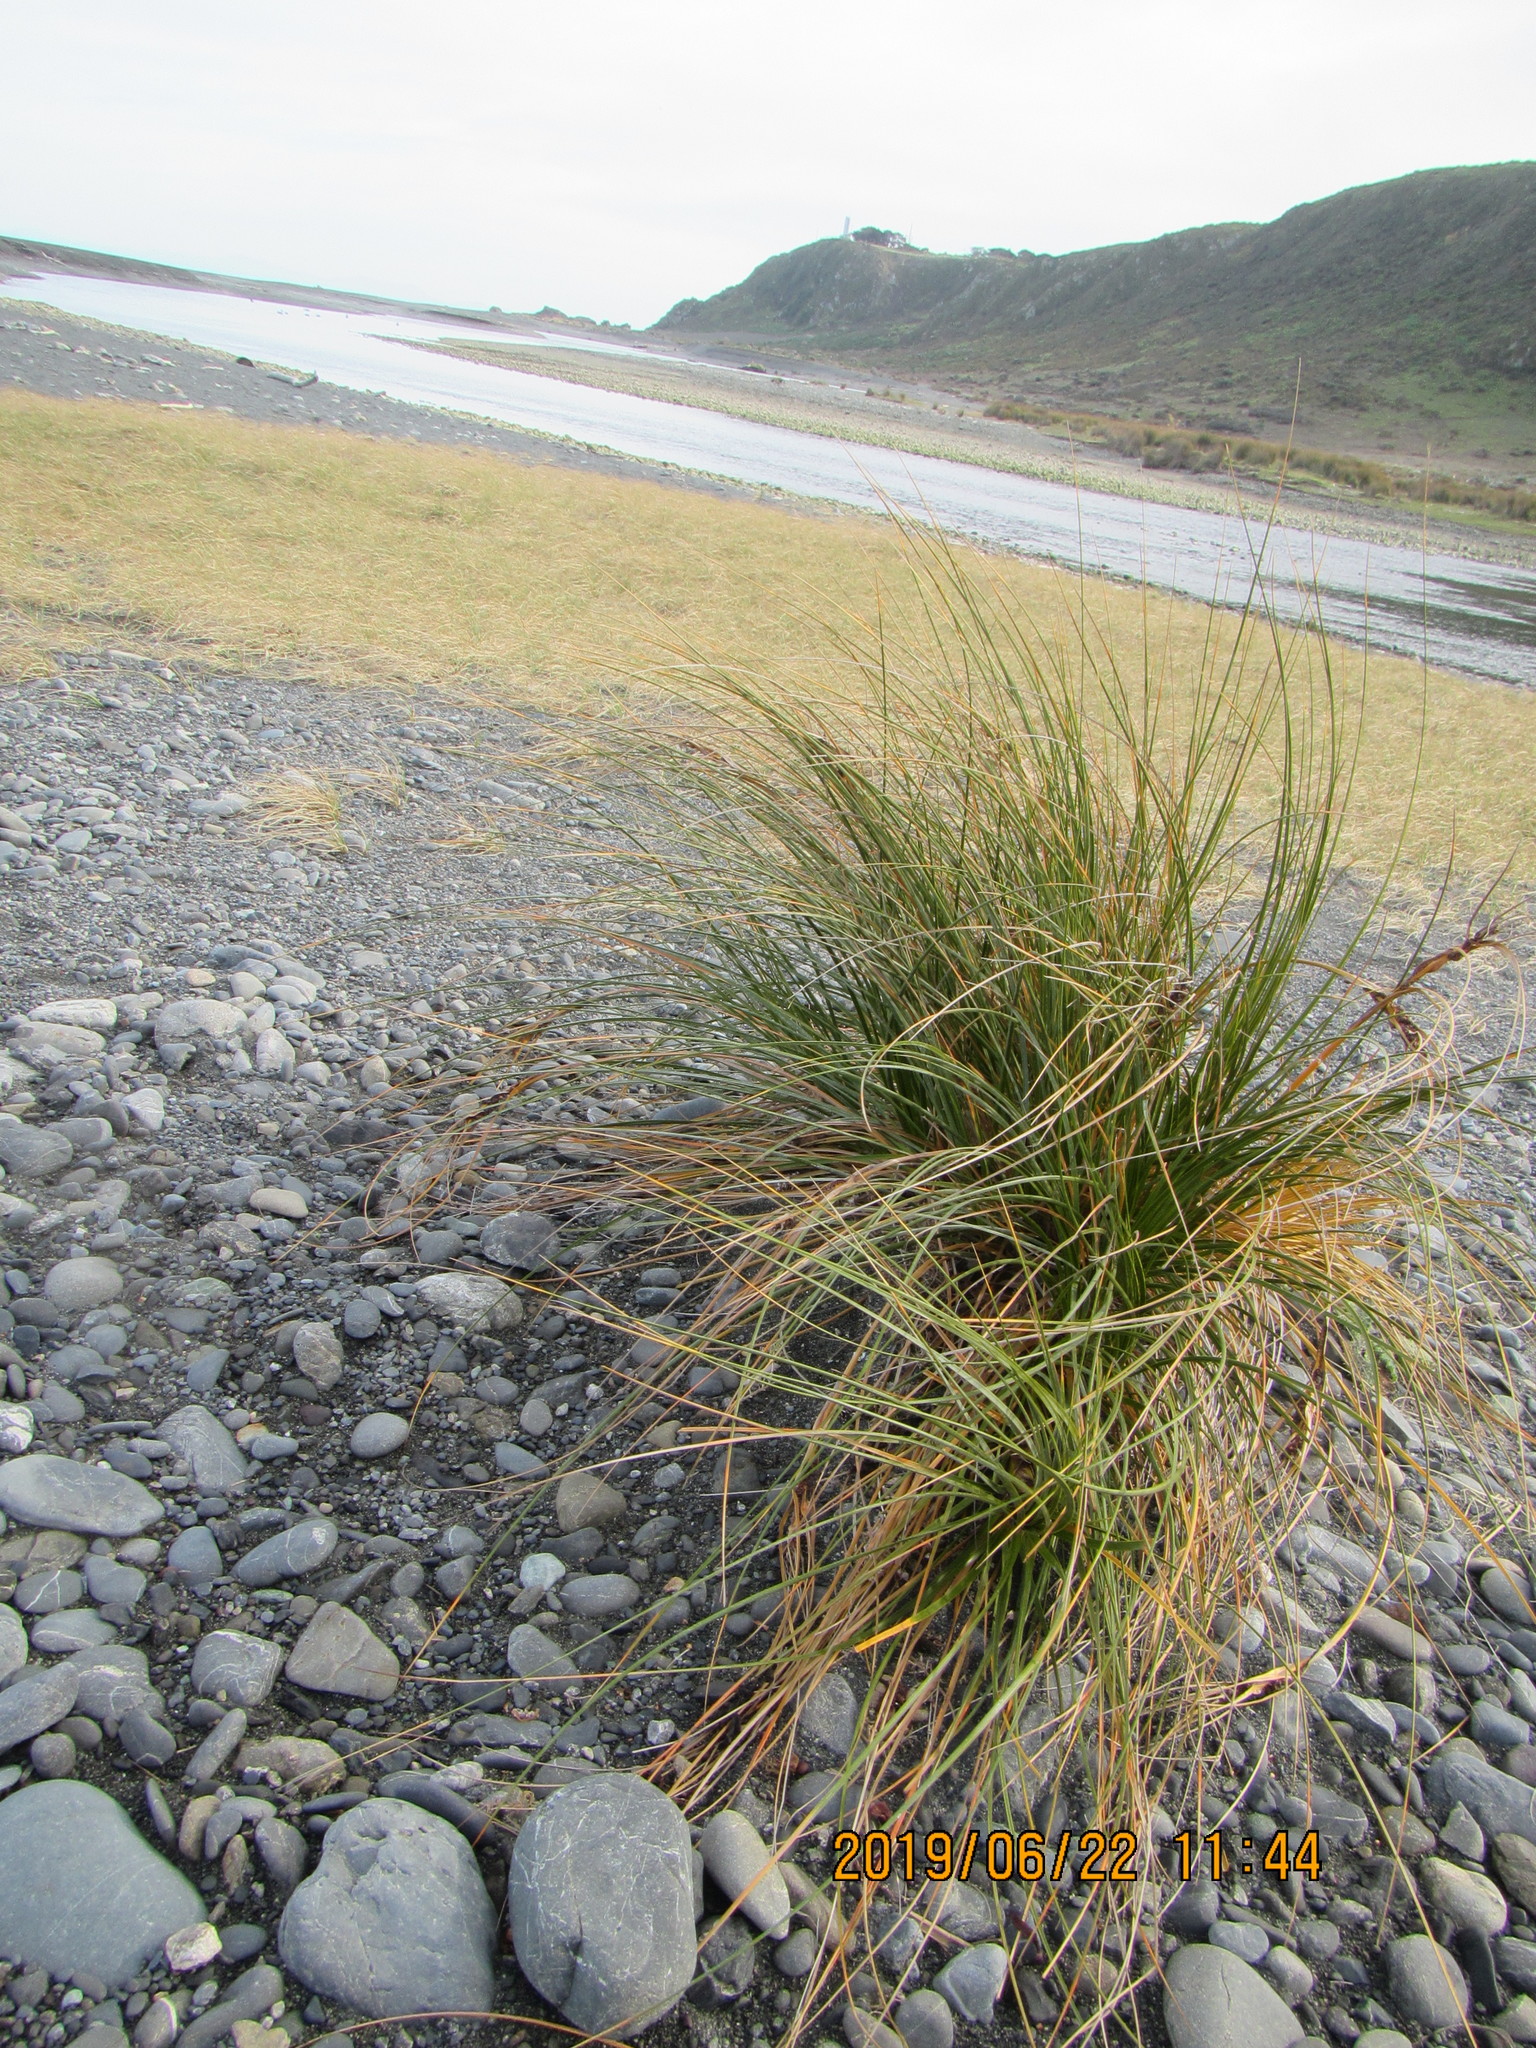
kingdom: Plantae
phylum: Tracheophyta
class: Liliopsida
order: Poales
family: Cyperaceae
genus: Ficinia
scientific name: Ficinia spiralis
